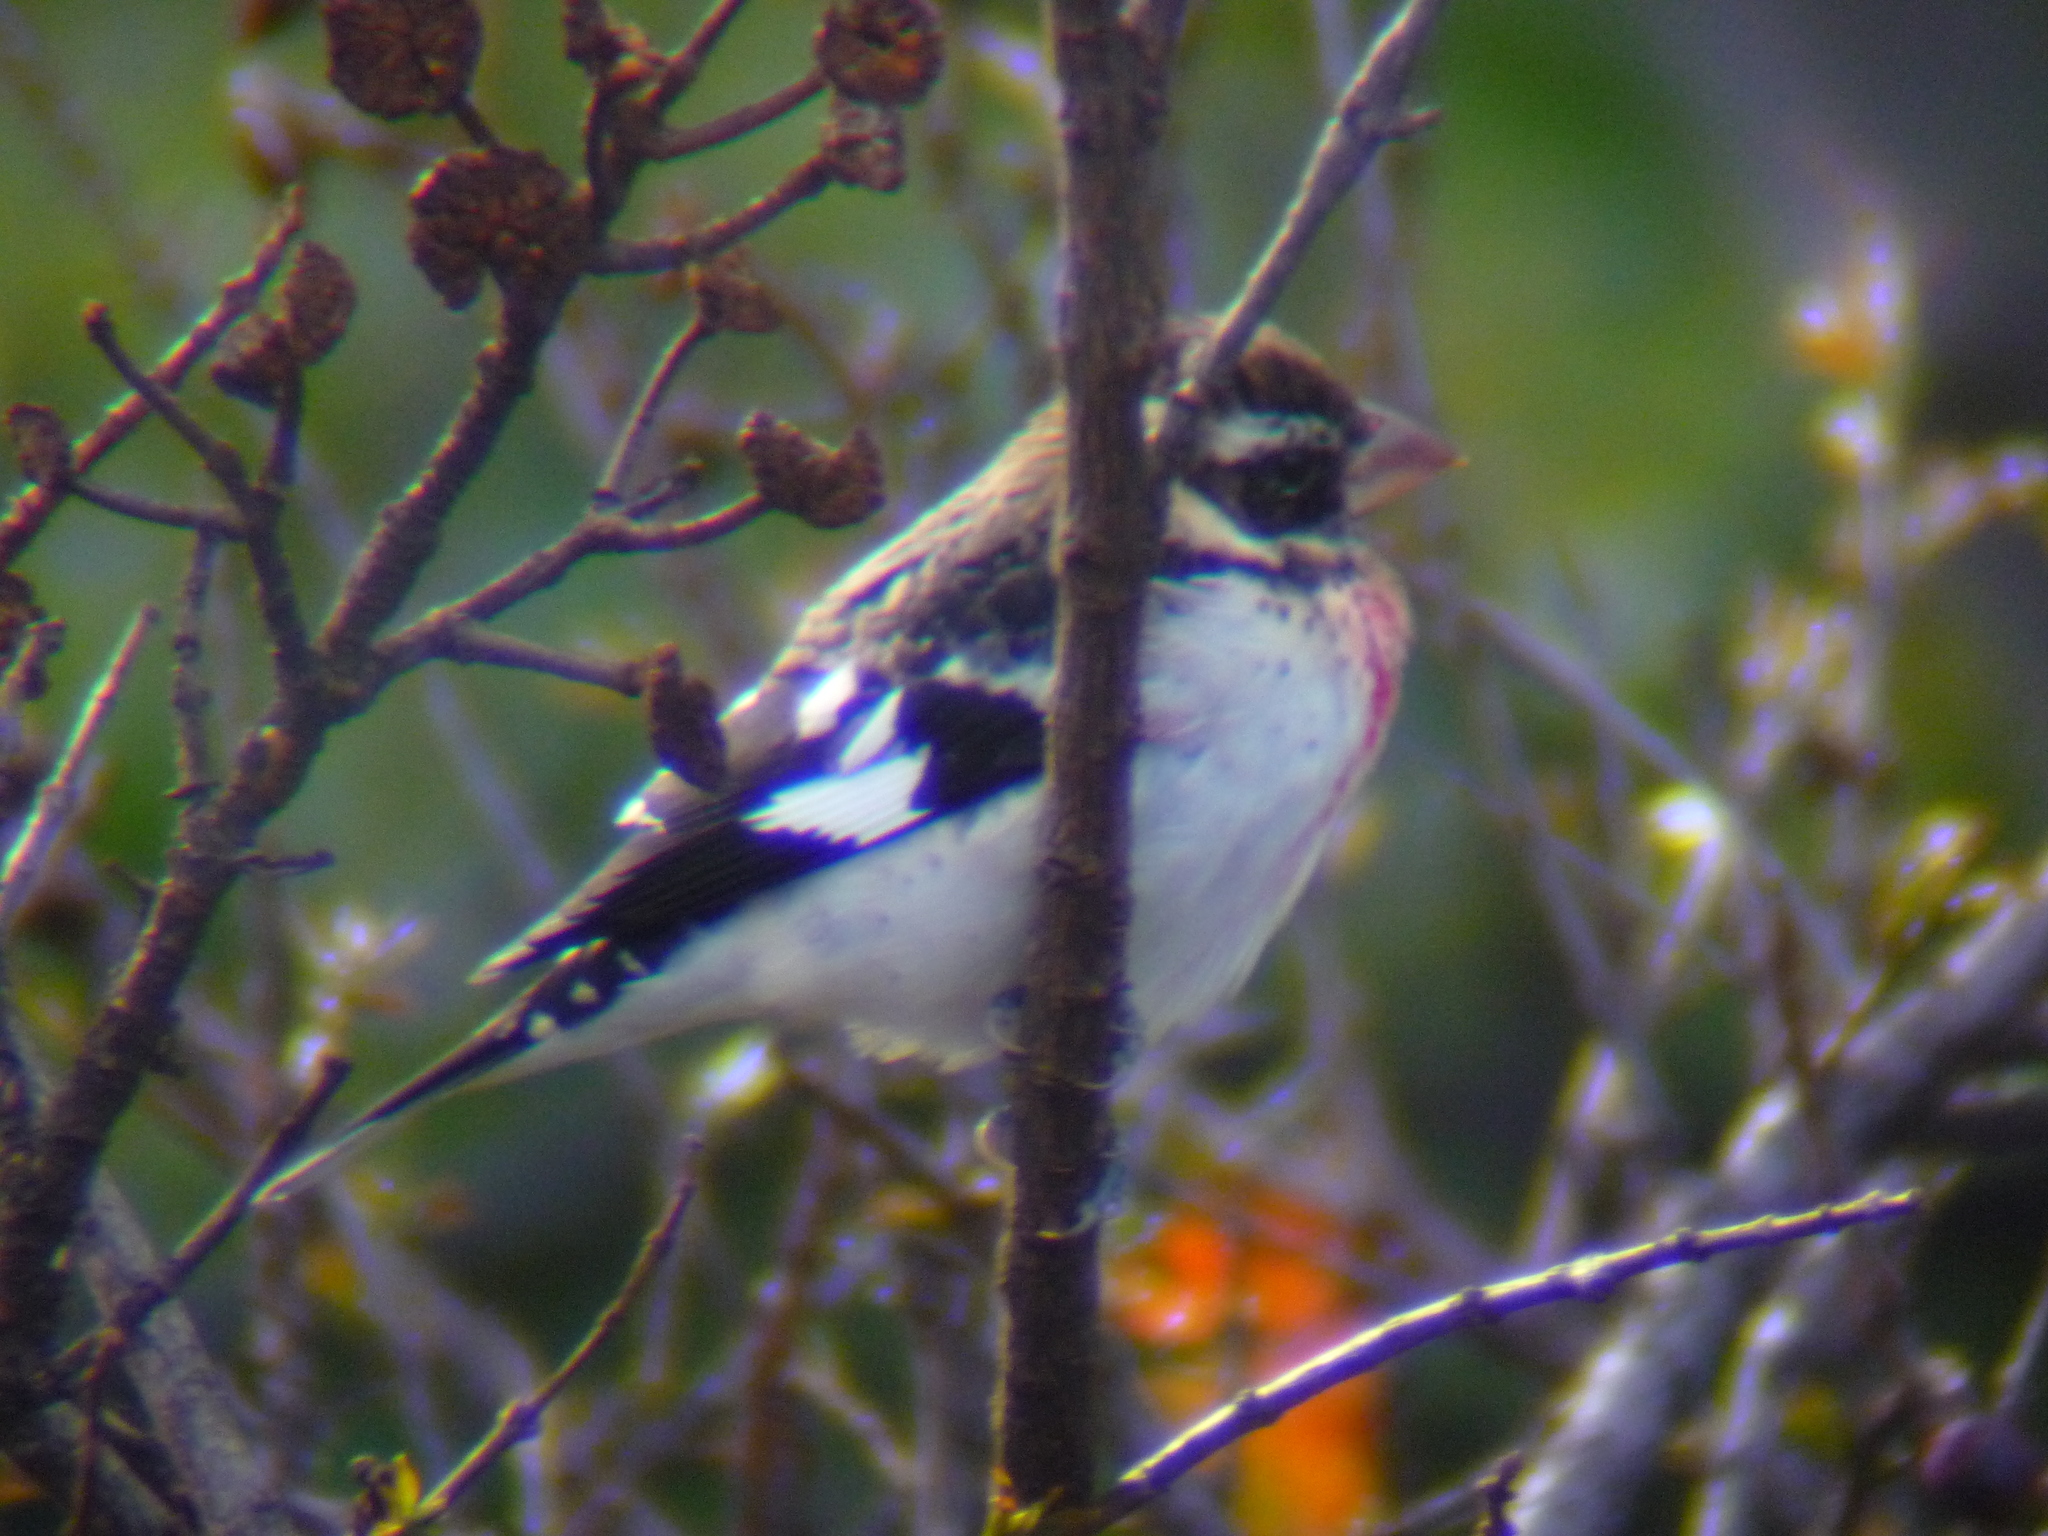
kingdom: Animalia
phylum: Chordata
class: Aves
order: Passeriformes
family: Cardinalidae
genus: Pheucticus
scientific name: Pheucticus ludovicianus
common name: Rose-breasted grosbeak
